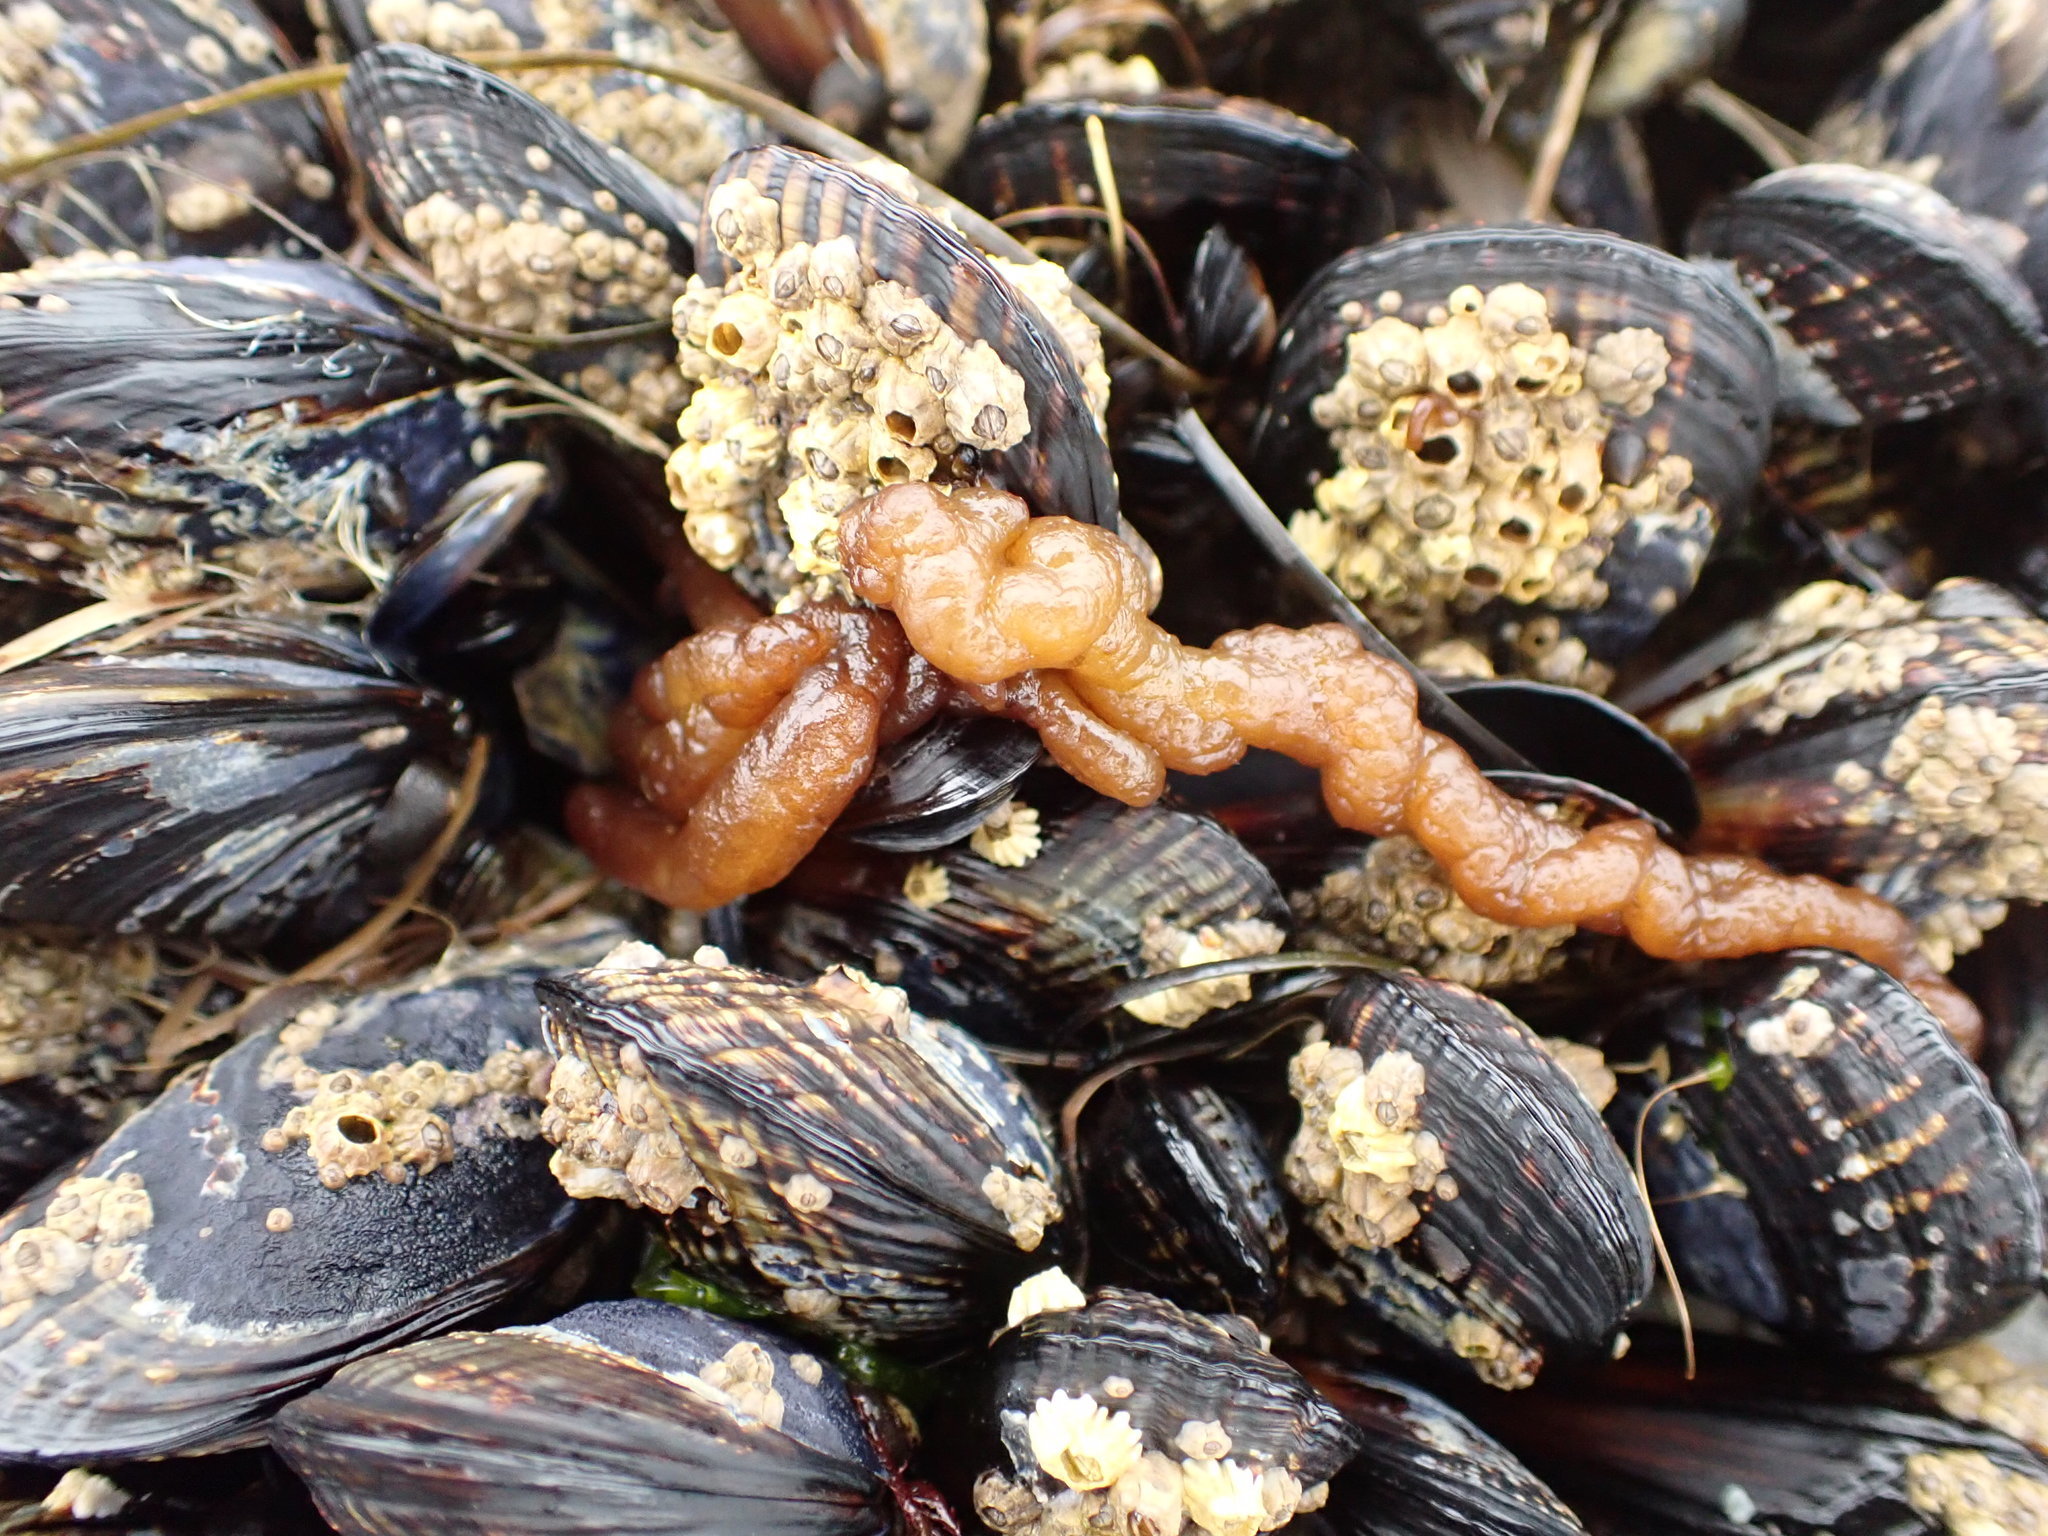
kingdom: Plantae
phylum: Rhodophyta
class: Florideophyceae
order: Nemaliales
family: Nemaliaceae
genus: Nemalion
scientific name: Nemalion elminthoides
